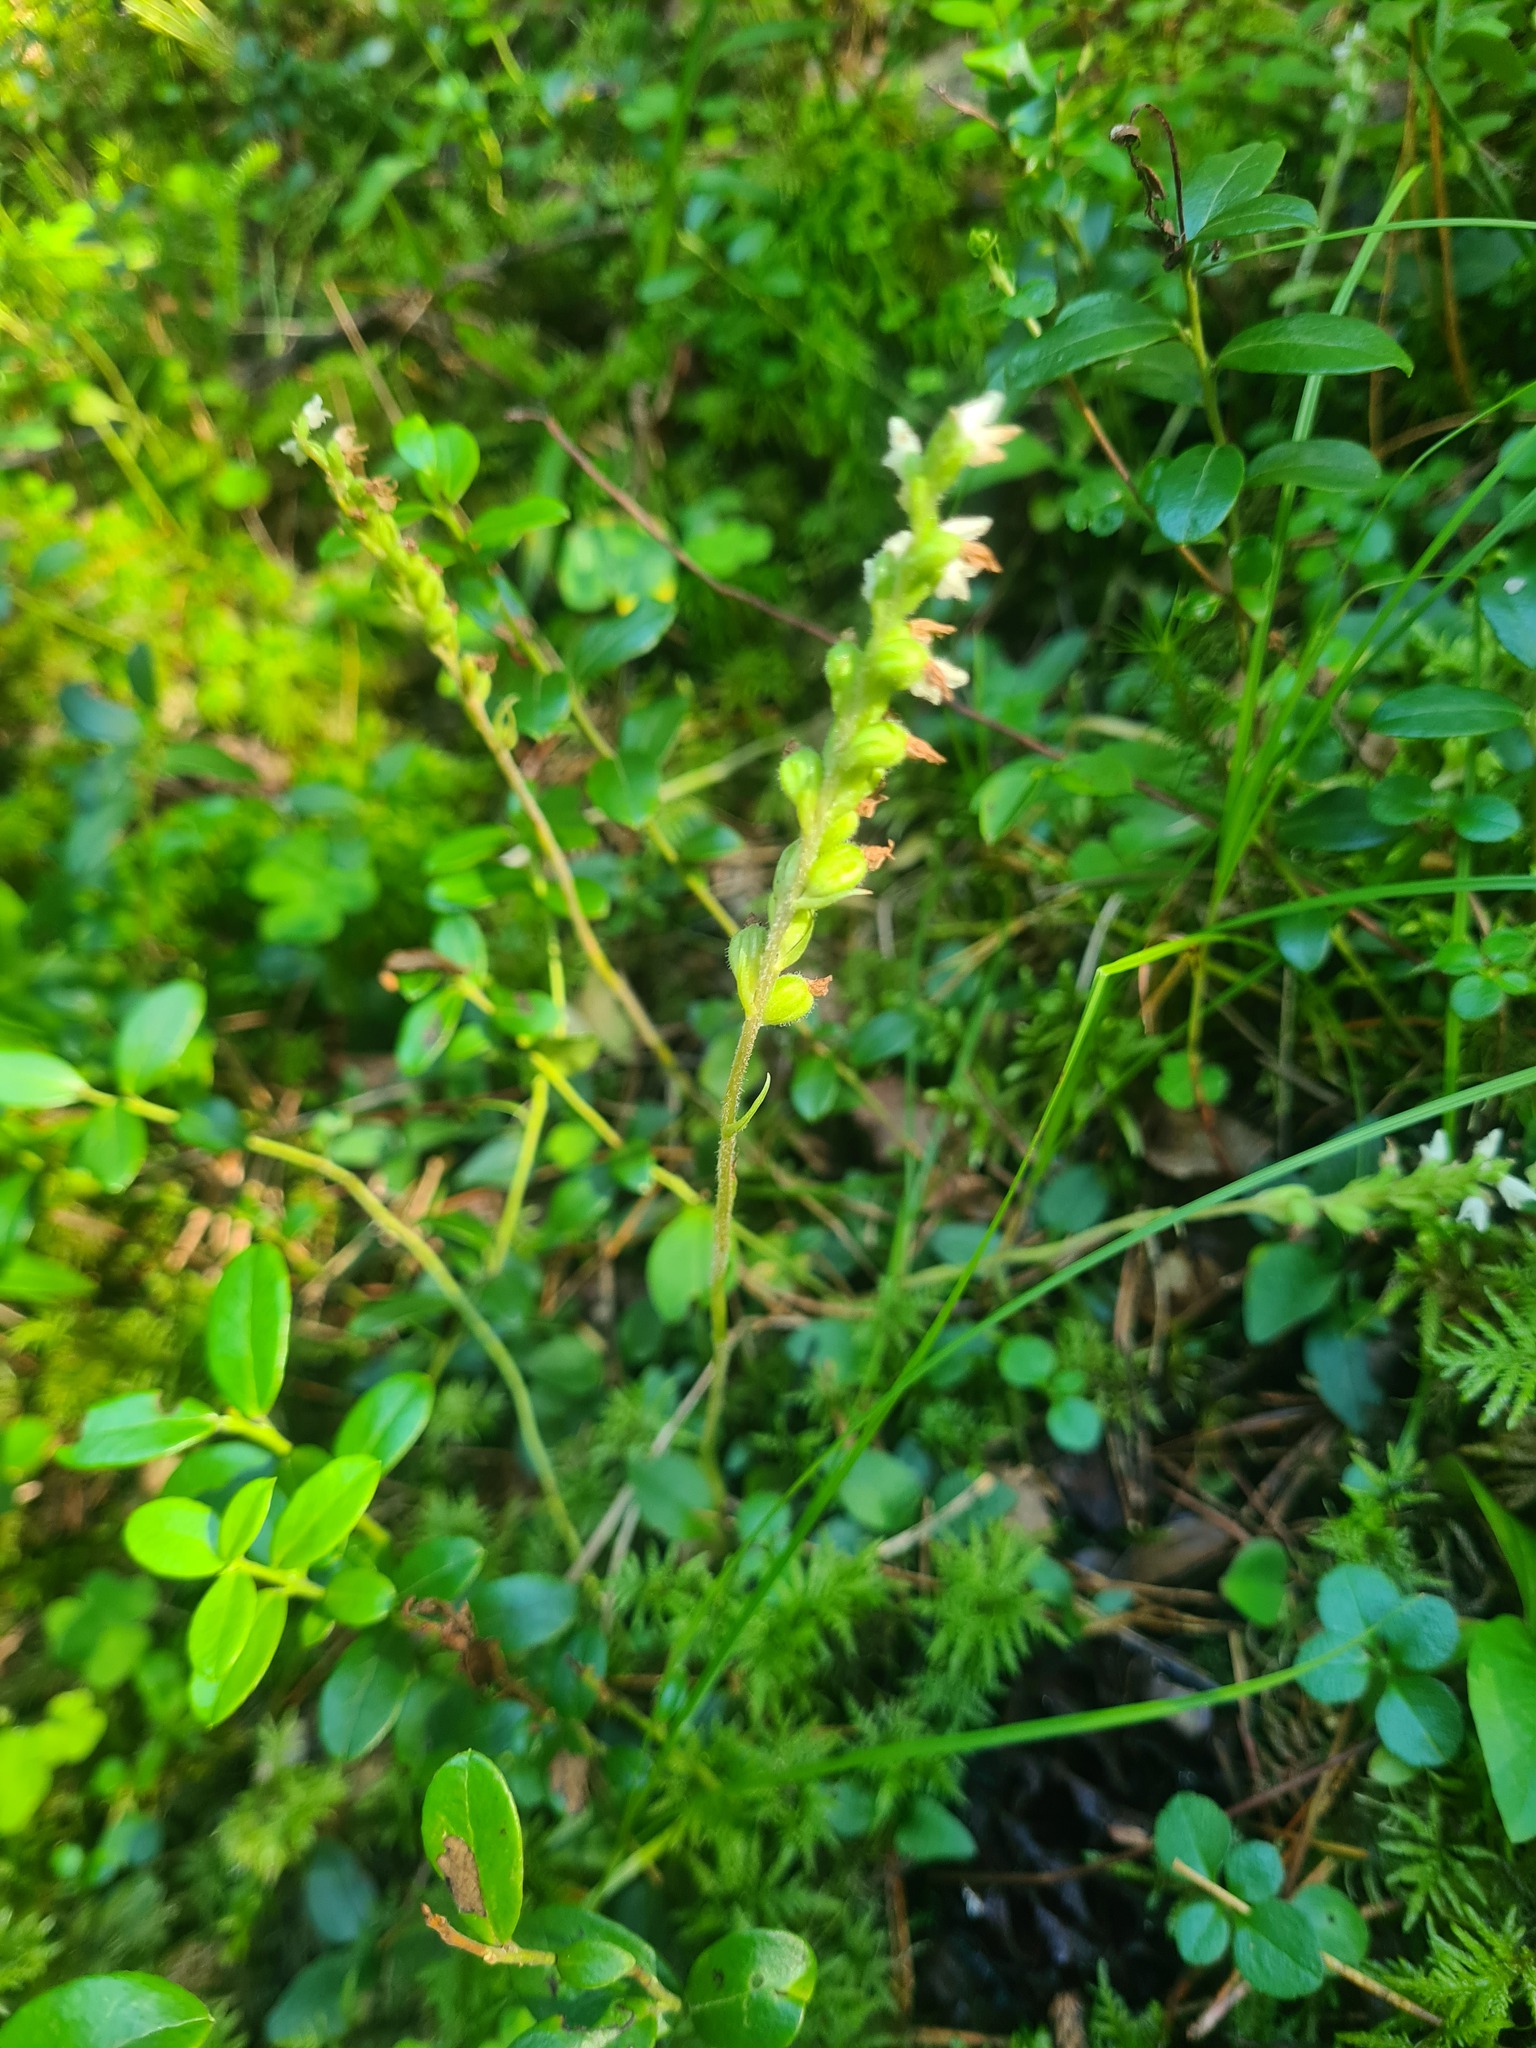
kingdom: Plantae
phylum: Tracheophyta
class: Liliopsida
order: Asparagales
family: Orchidaceae
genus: Goodyera
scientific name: Goodyera repens
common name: Creeping lady's-tresses
